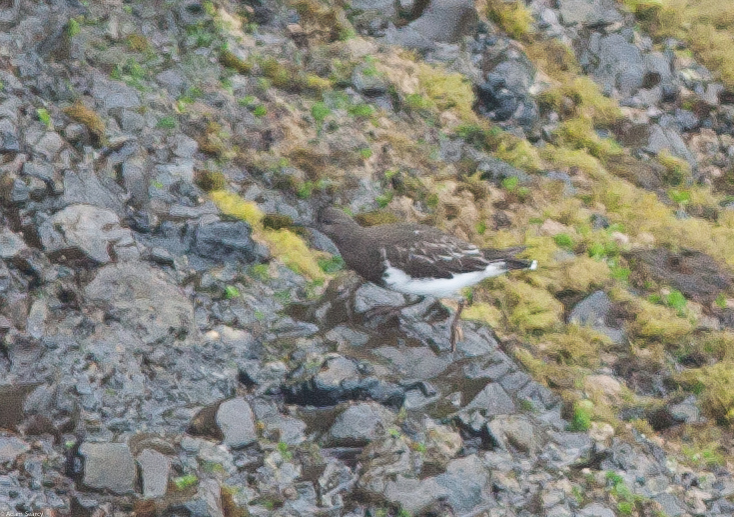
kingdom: Animalia
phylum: Chordata
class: Aves
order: Charadriiformes
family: Scolopacidae
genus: Arenaria
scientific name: Arenaria melanocephala
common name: Black turnstone
